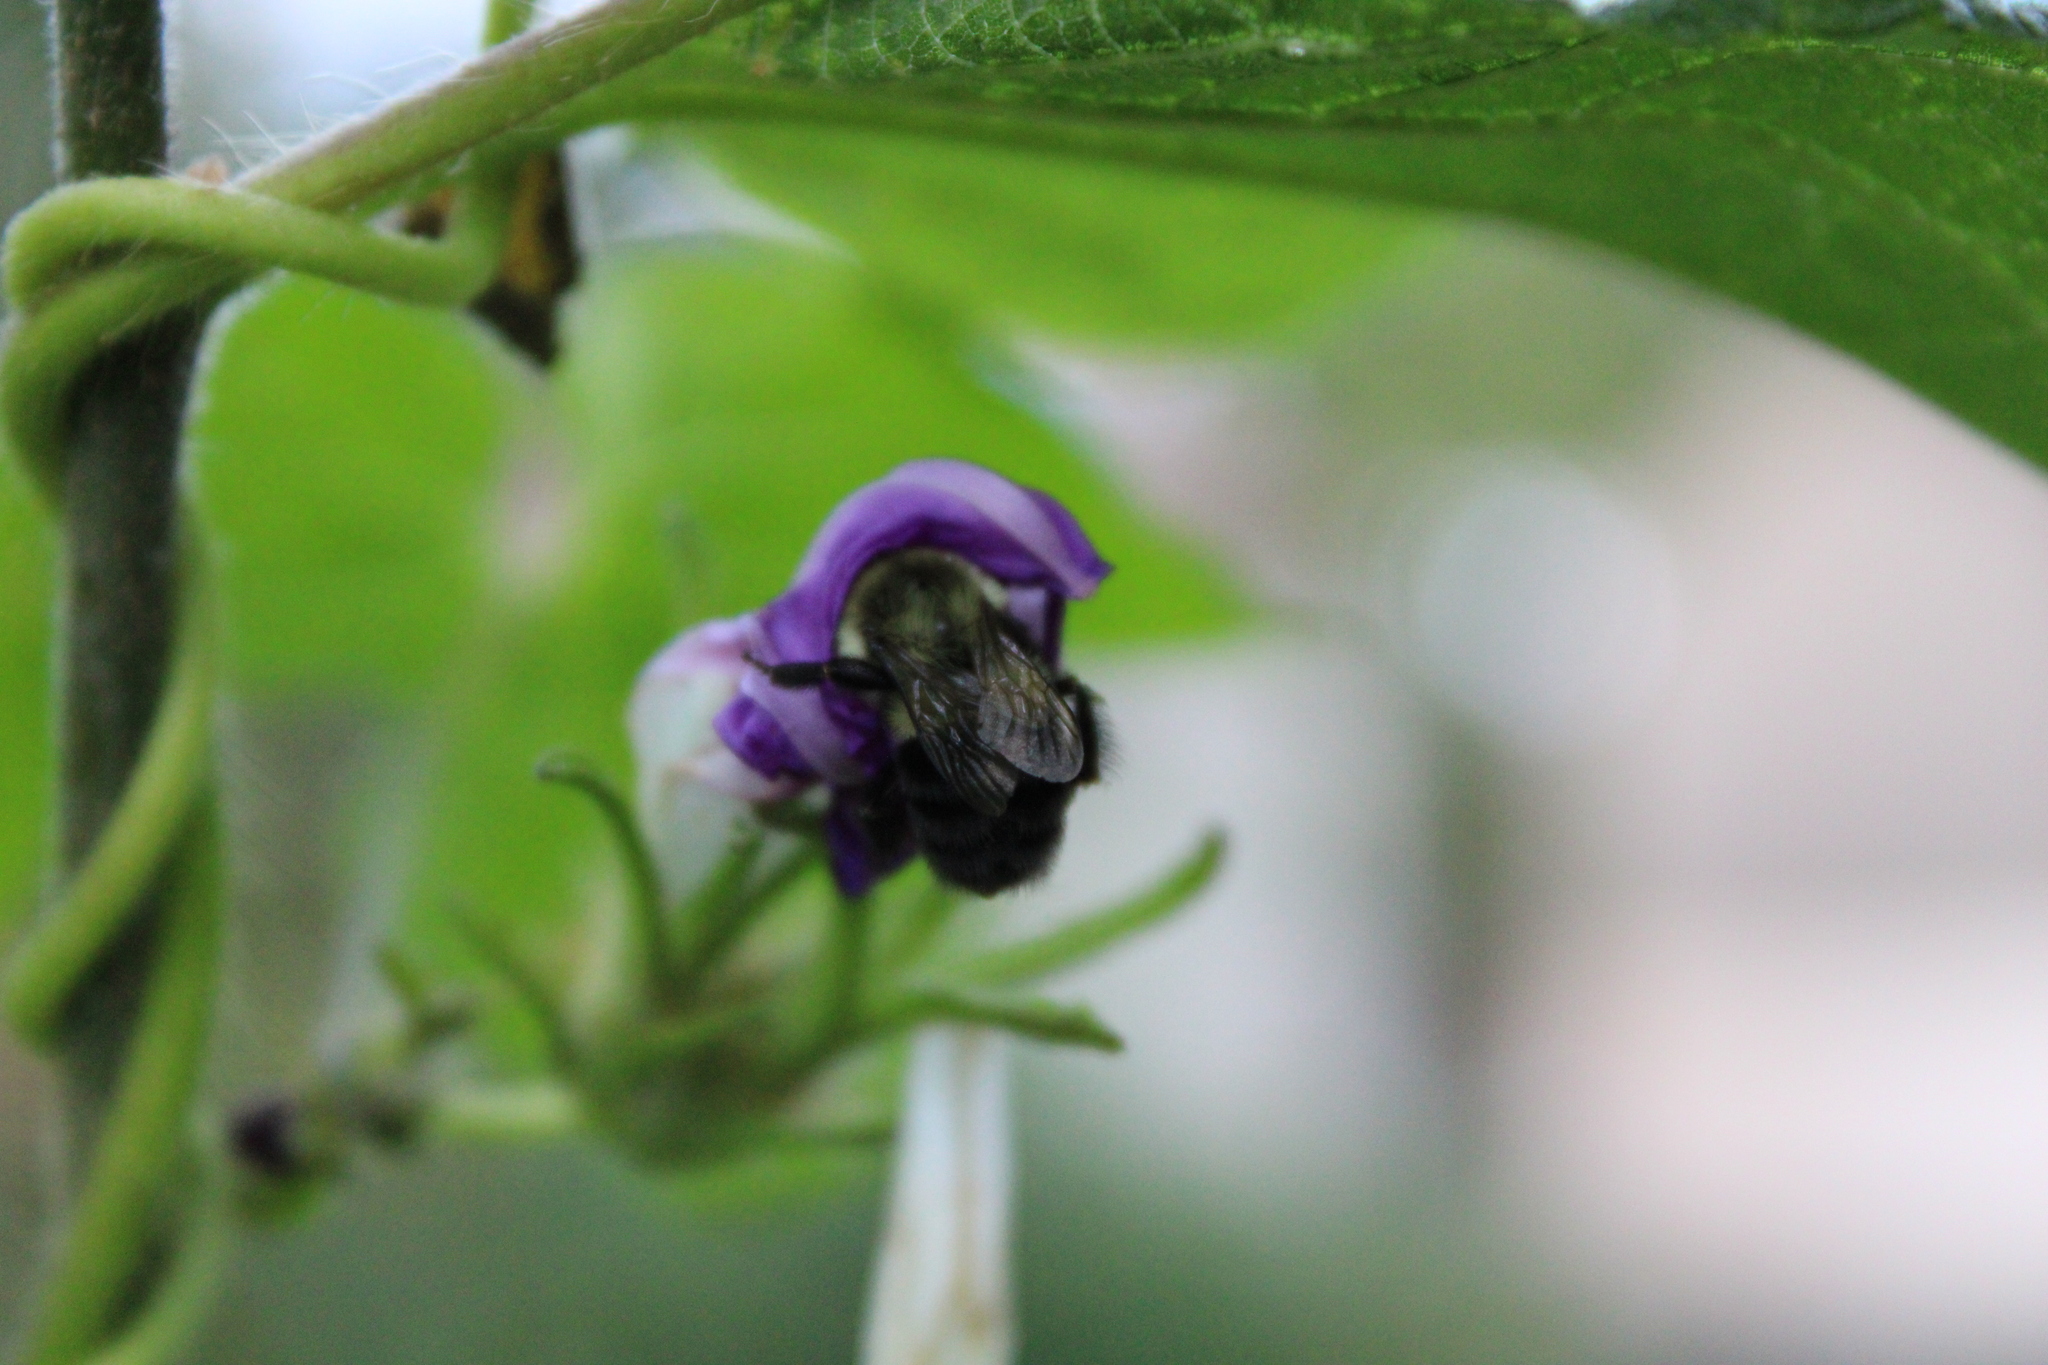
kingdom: Animalia
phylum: Arthropoda
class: Insecta
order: Hymenoptera
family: Apidae
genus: Bombus
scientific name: Bombus impatiens
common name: Common eastern bumble bee
